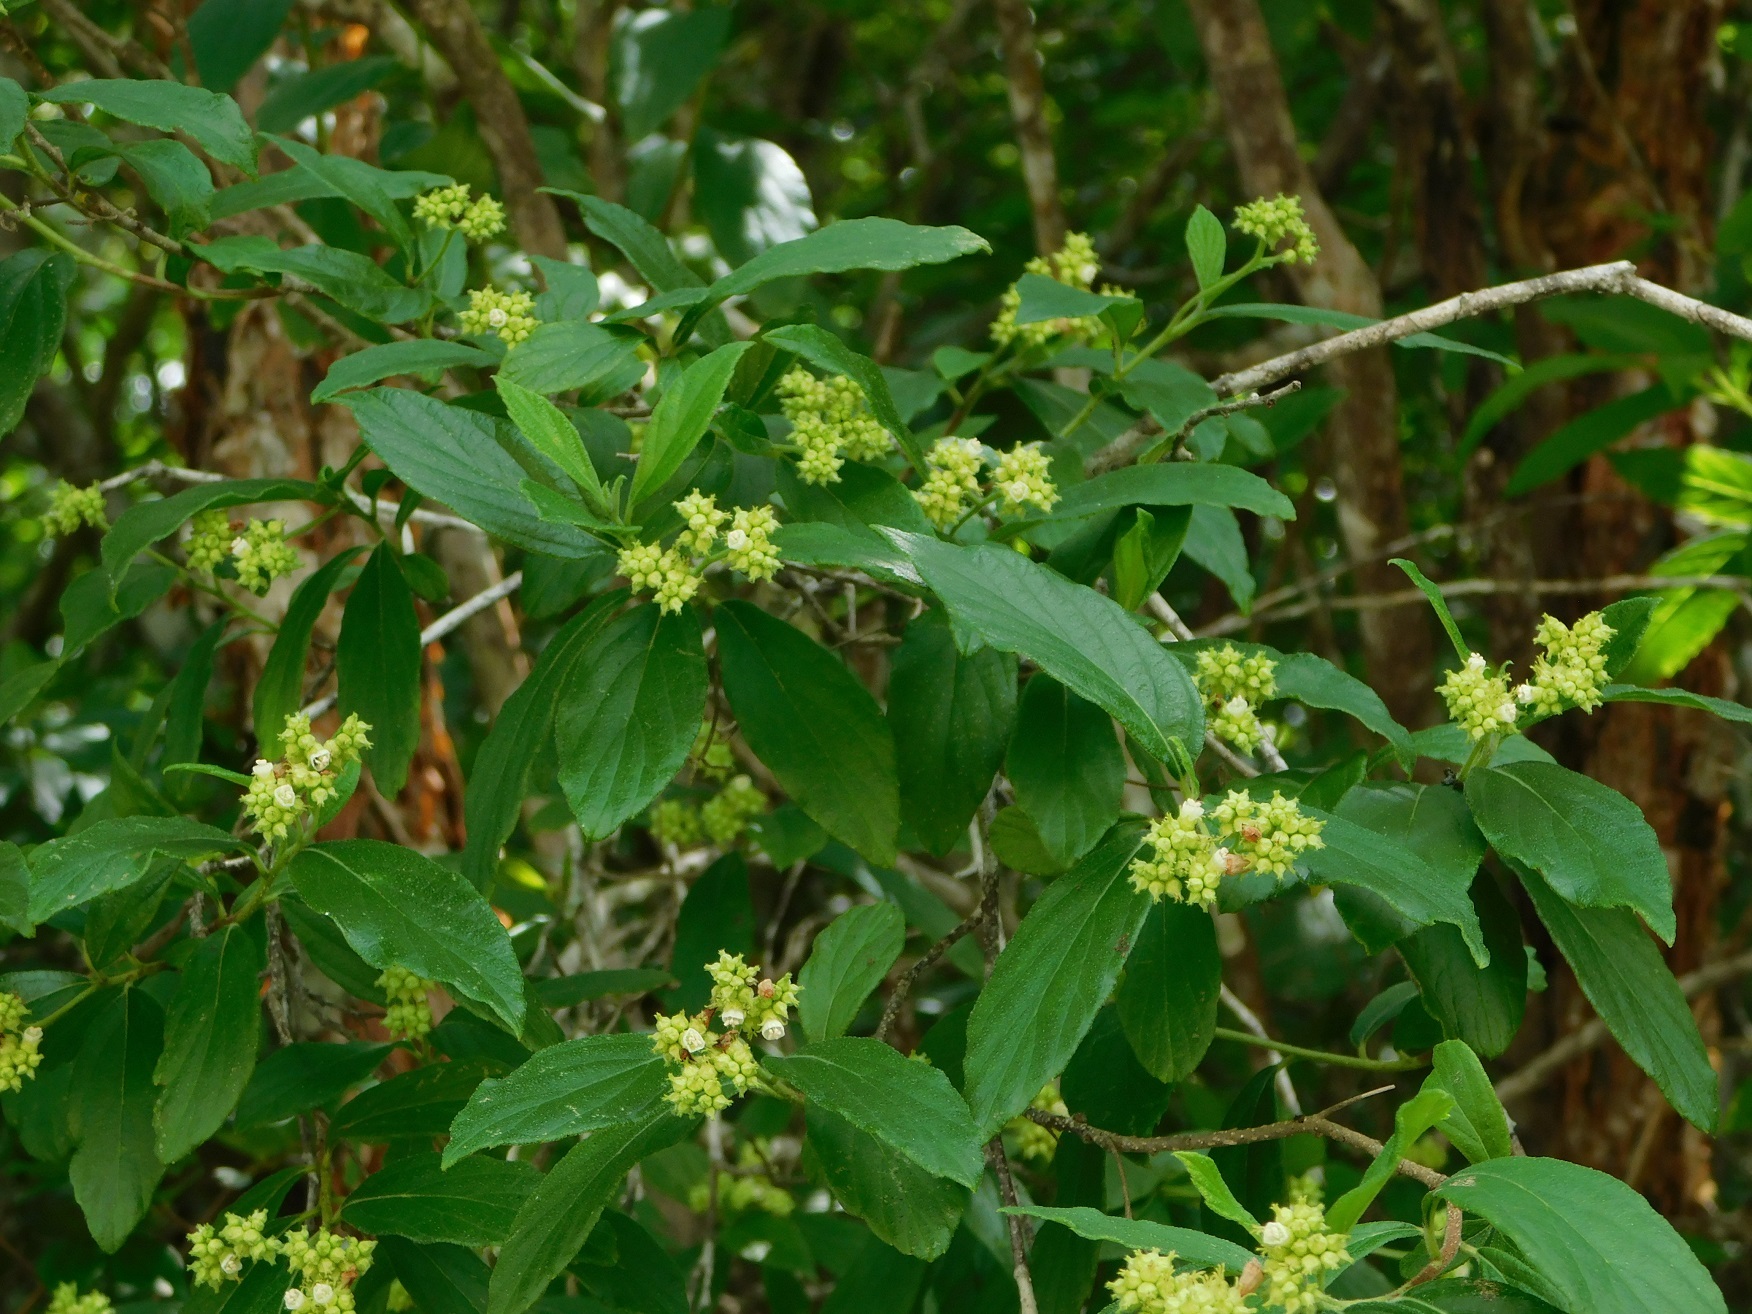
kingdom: Plantae
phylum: Tracheophyta
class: Magnoliopsida
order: Boraginales
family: Cordiaceae
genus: Varronia
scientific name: Varronia foliosa
